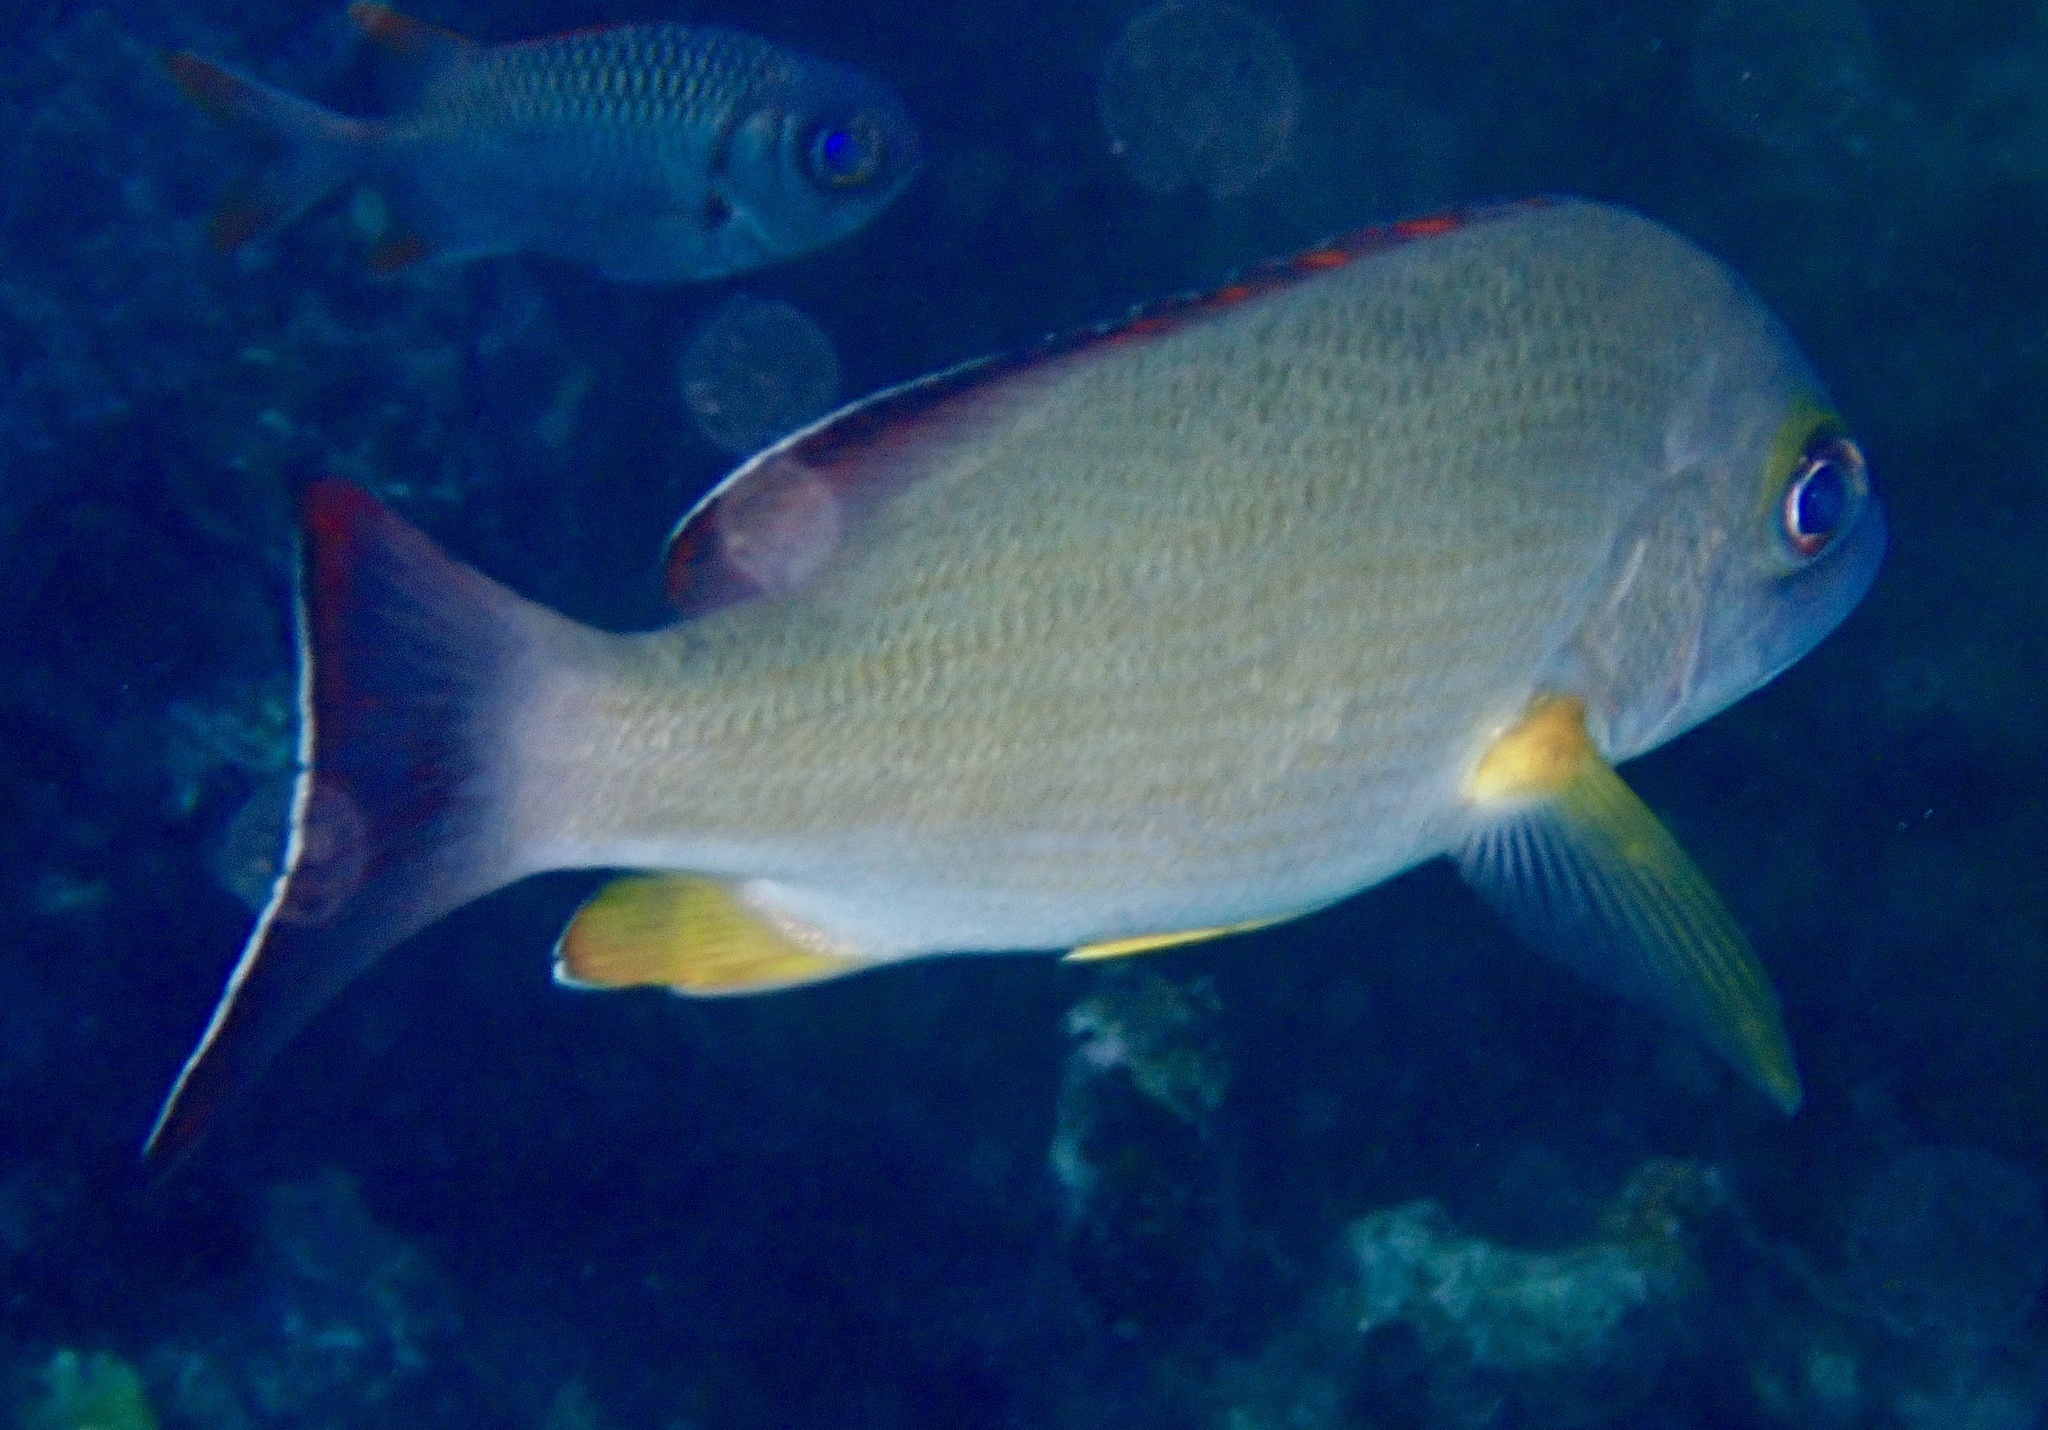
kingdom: Animalia
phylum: Chordata
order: Perciformes
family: Lutjanidae
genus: Lutjanus
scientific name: Lutjanus fulvus
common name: Blacktail snapper
